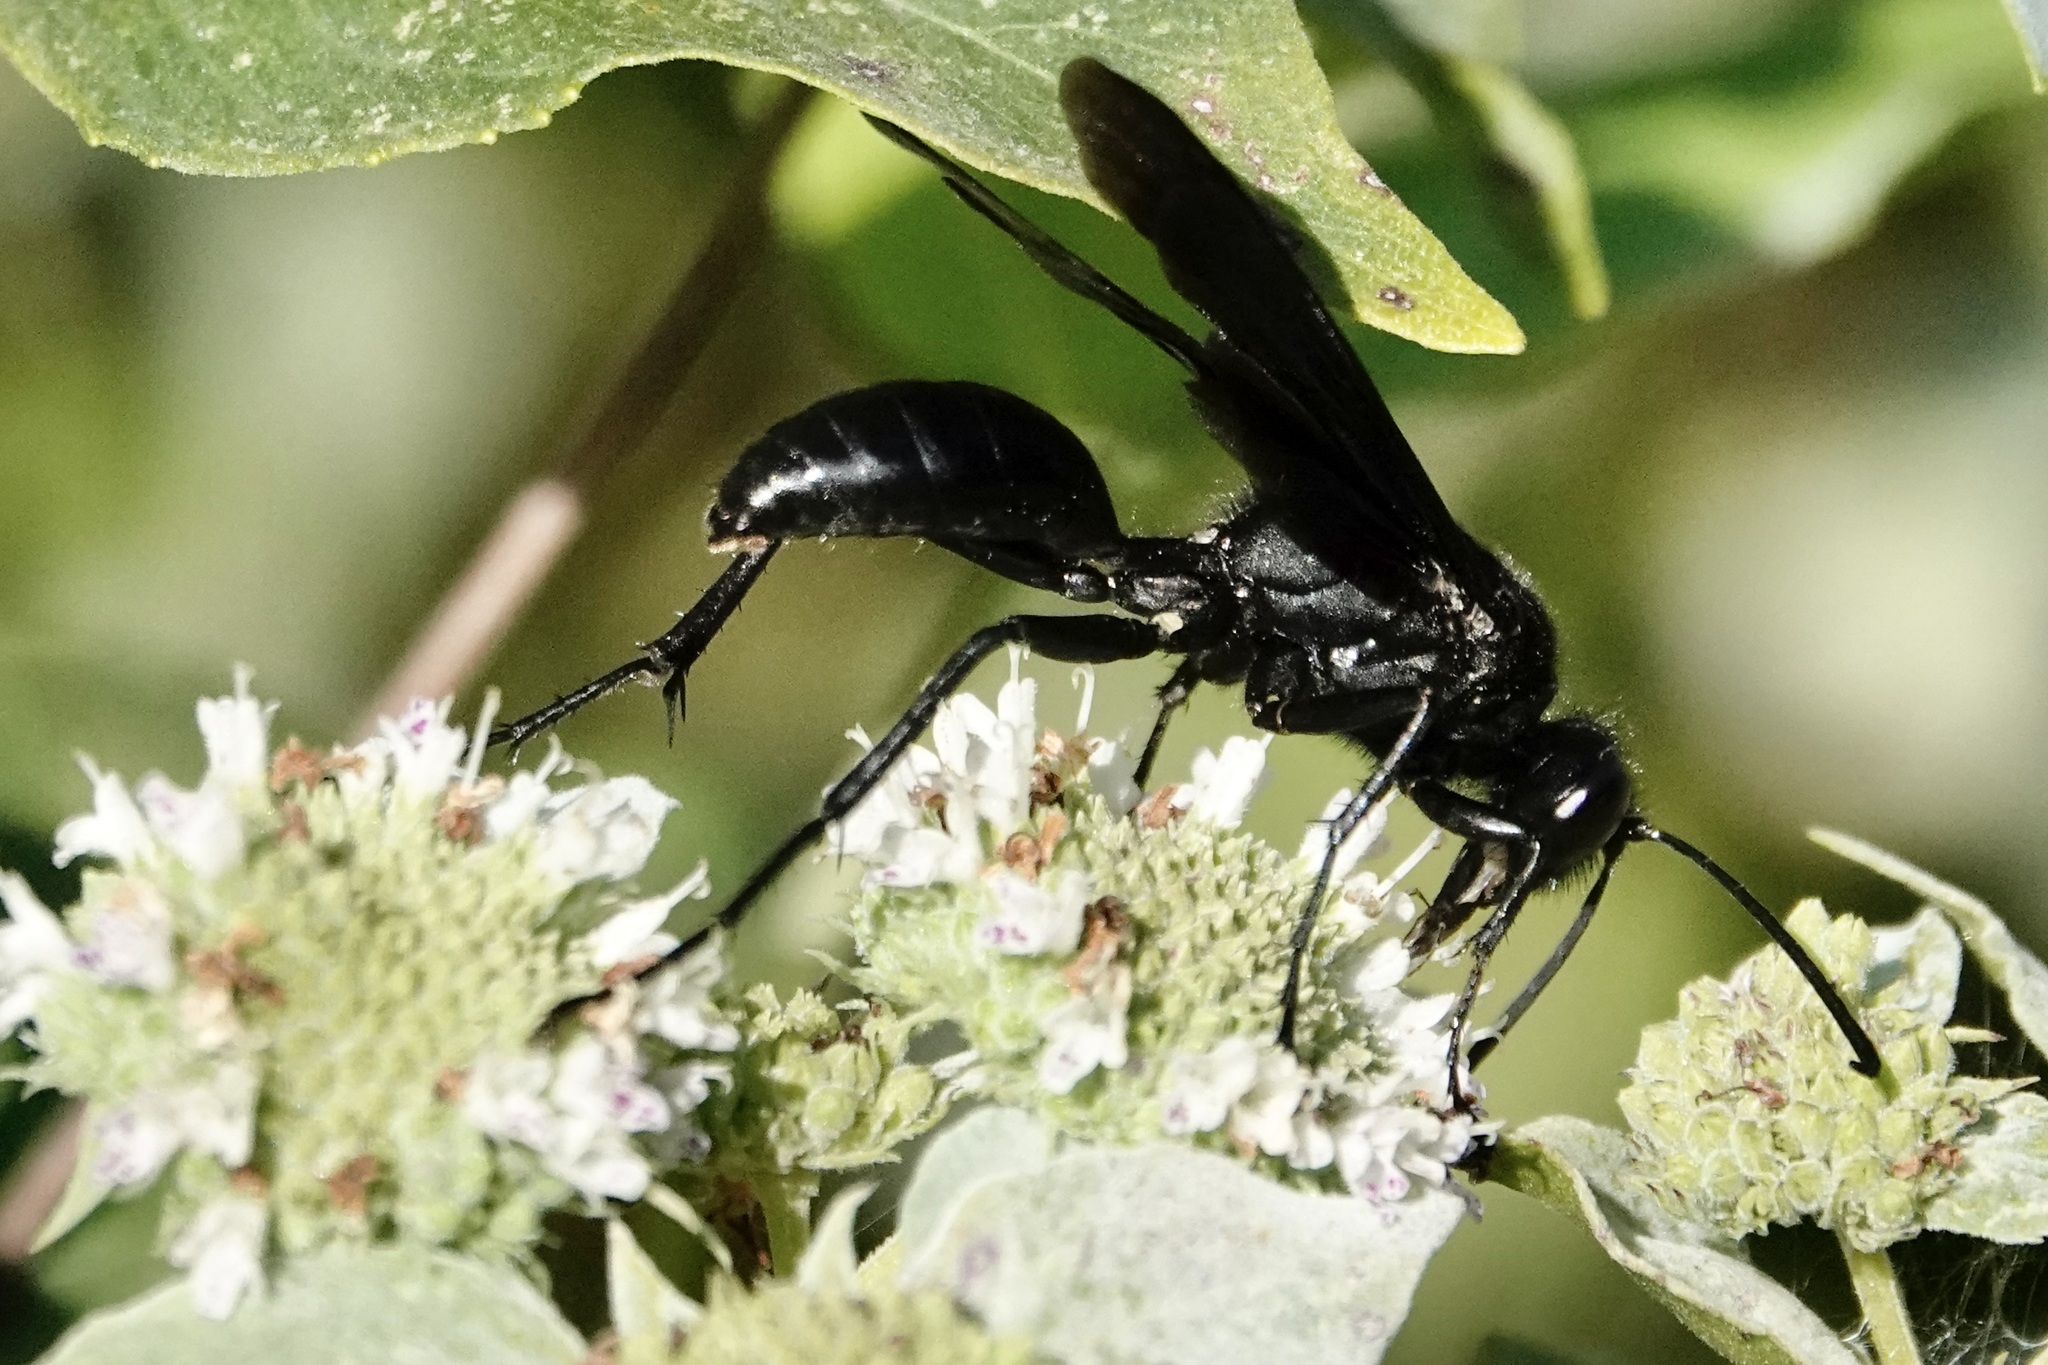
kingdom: Animalia
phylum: Arthropoda
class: Insecta
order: Hymenoptera
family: Sphecidae
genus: Sphex
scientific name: Sphex pensylvanicus
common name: Great black digger wasp
